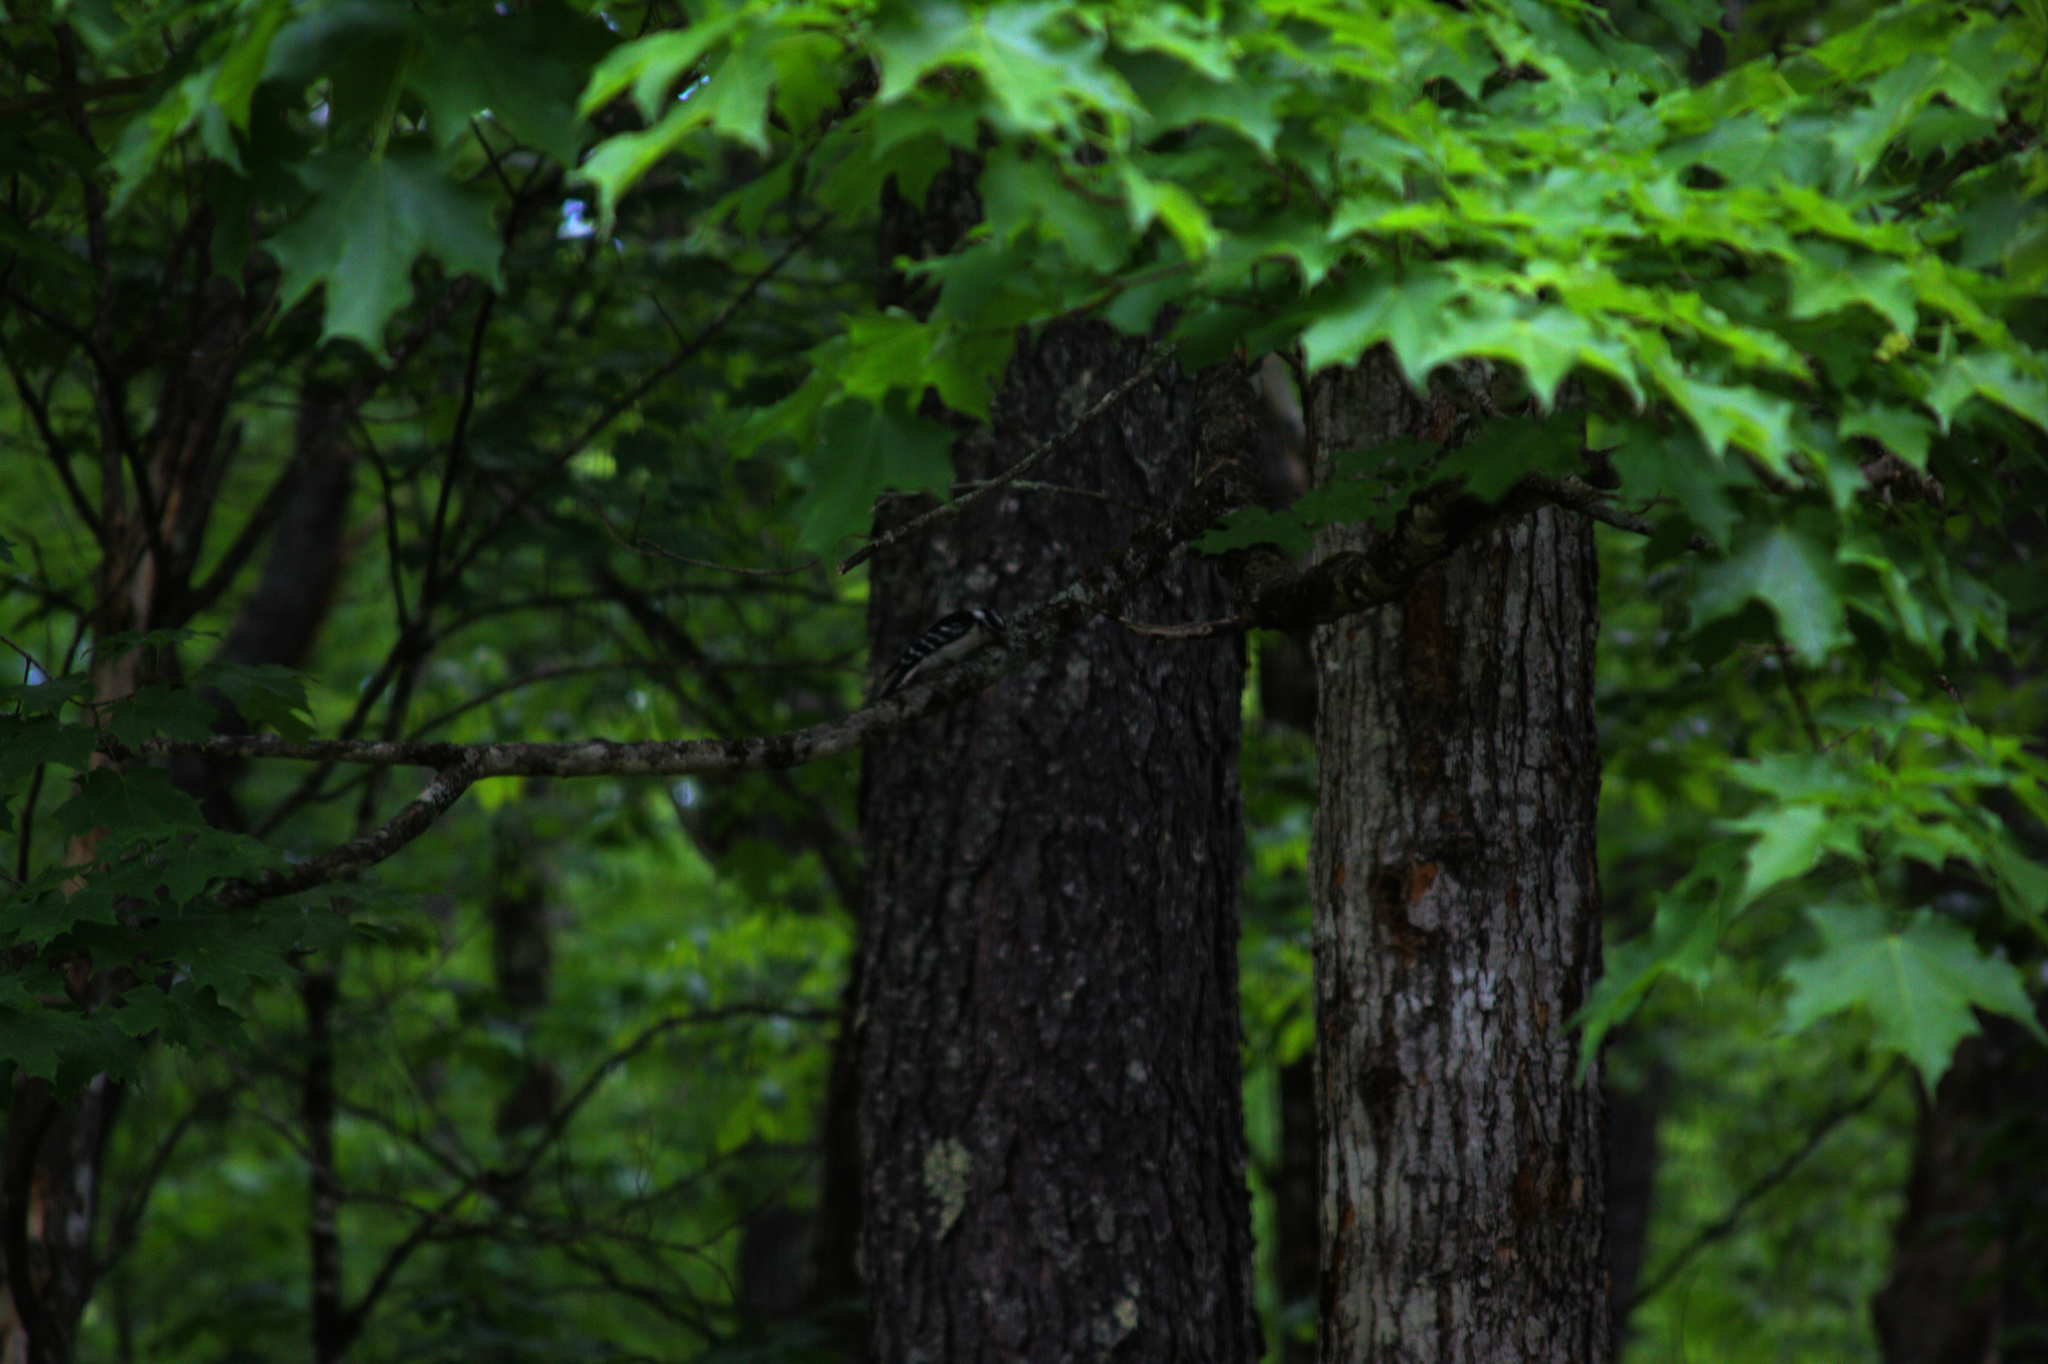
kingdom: Animalia
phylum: Chordata
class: Aves
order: Piciformes
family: Picidae
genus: Dryobates
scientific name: Dryobates pubescens
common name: Downy woodpecker
